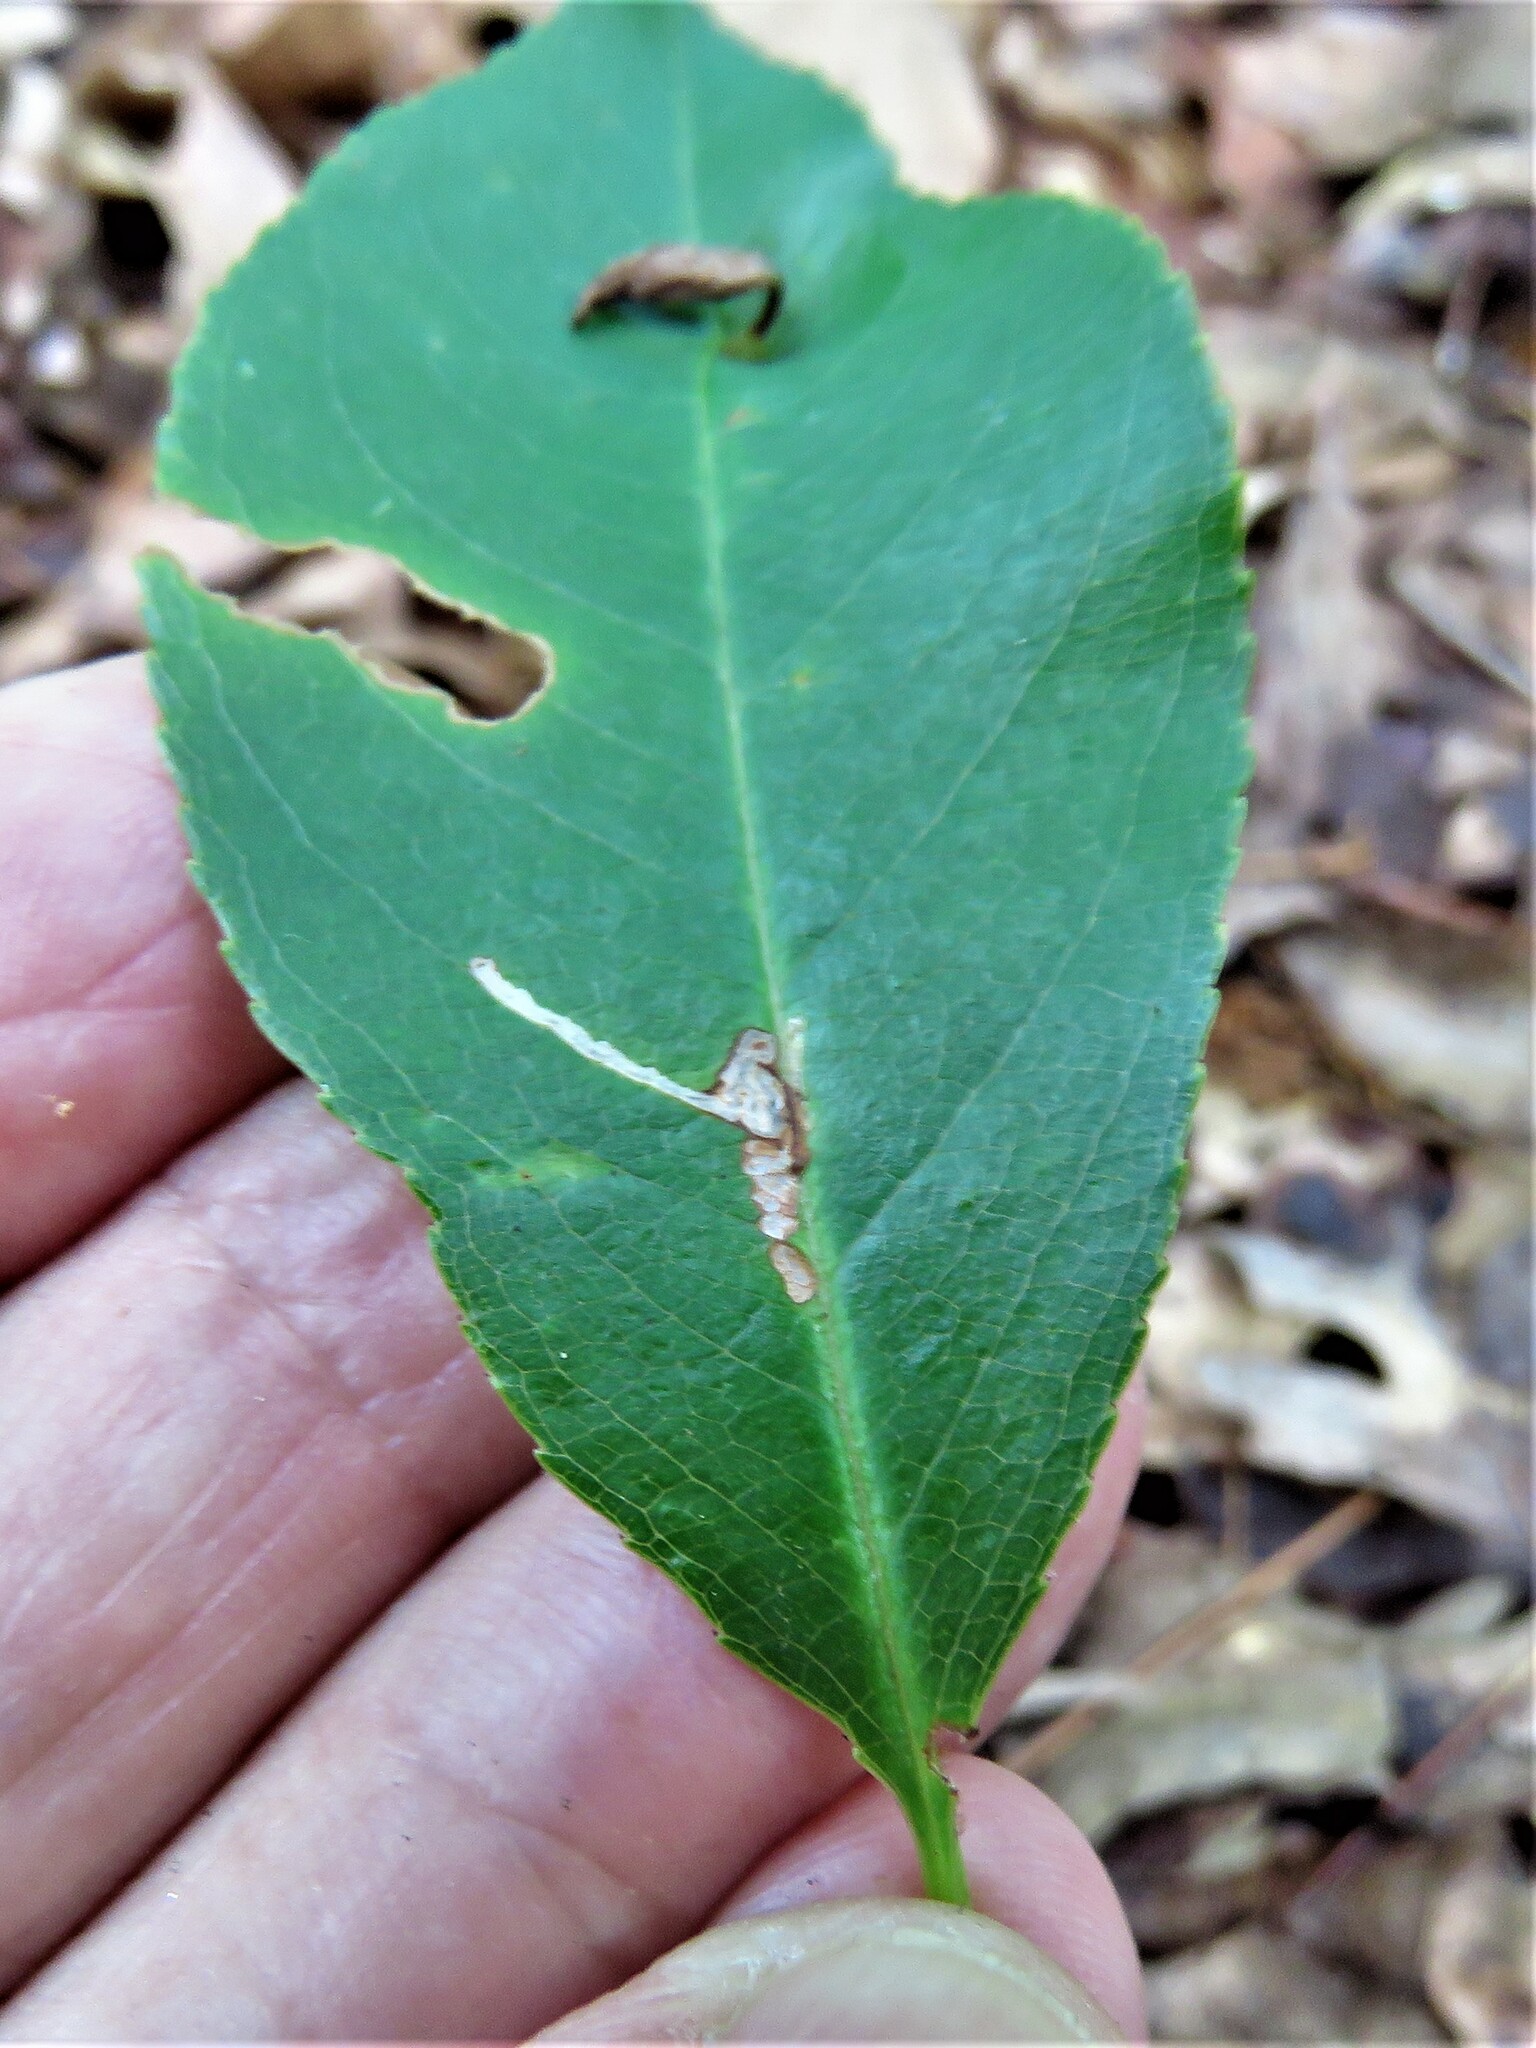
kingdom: Animalia
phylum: Arthropoda
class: Insecta
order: Lepidoptera
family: Bucculatricidae
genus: Bucculatrix
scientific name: Bucculatrix pomifoliella
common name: Apple skeletonizer moth
